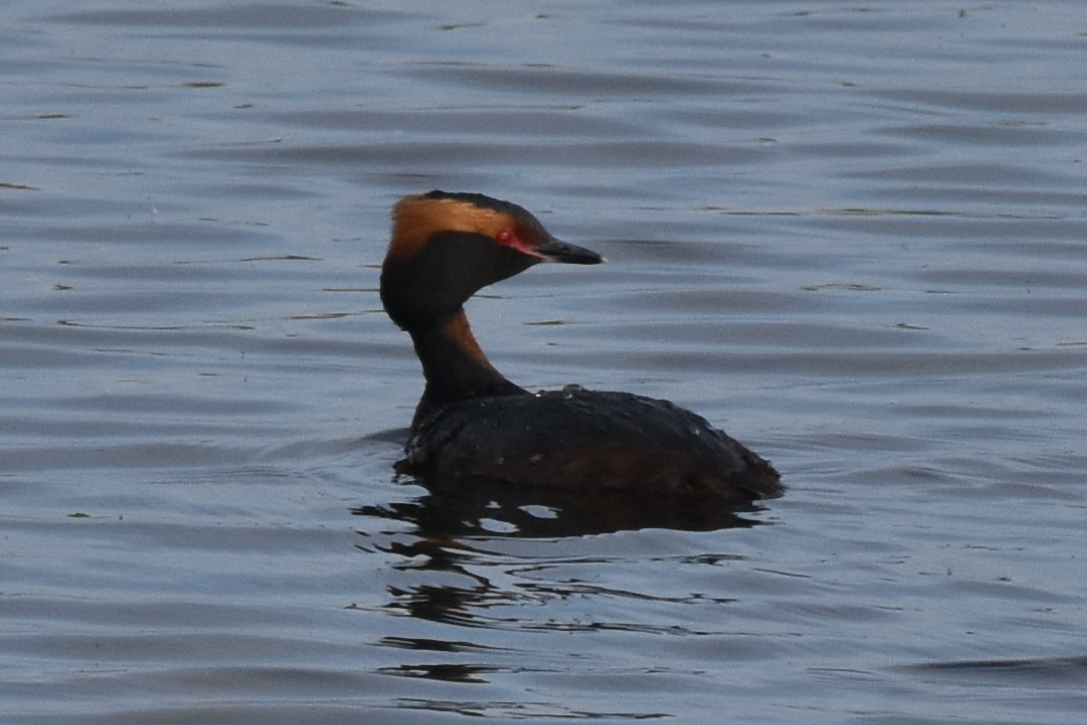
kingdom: Animalia
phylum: Chordata
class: Aves
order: Podicipediformes
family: Podicipedidae
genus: Podiceps
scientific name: Podiceps auritus
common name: Horned grebe
